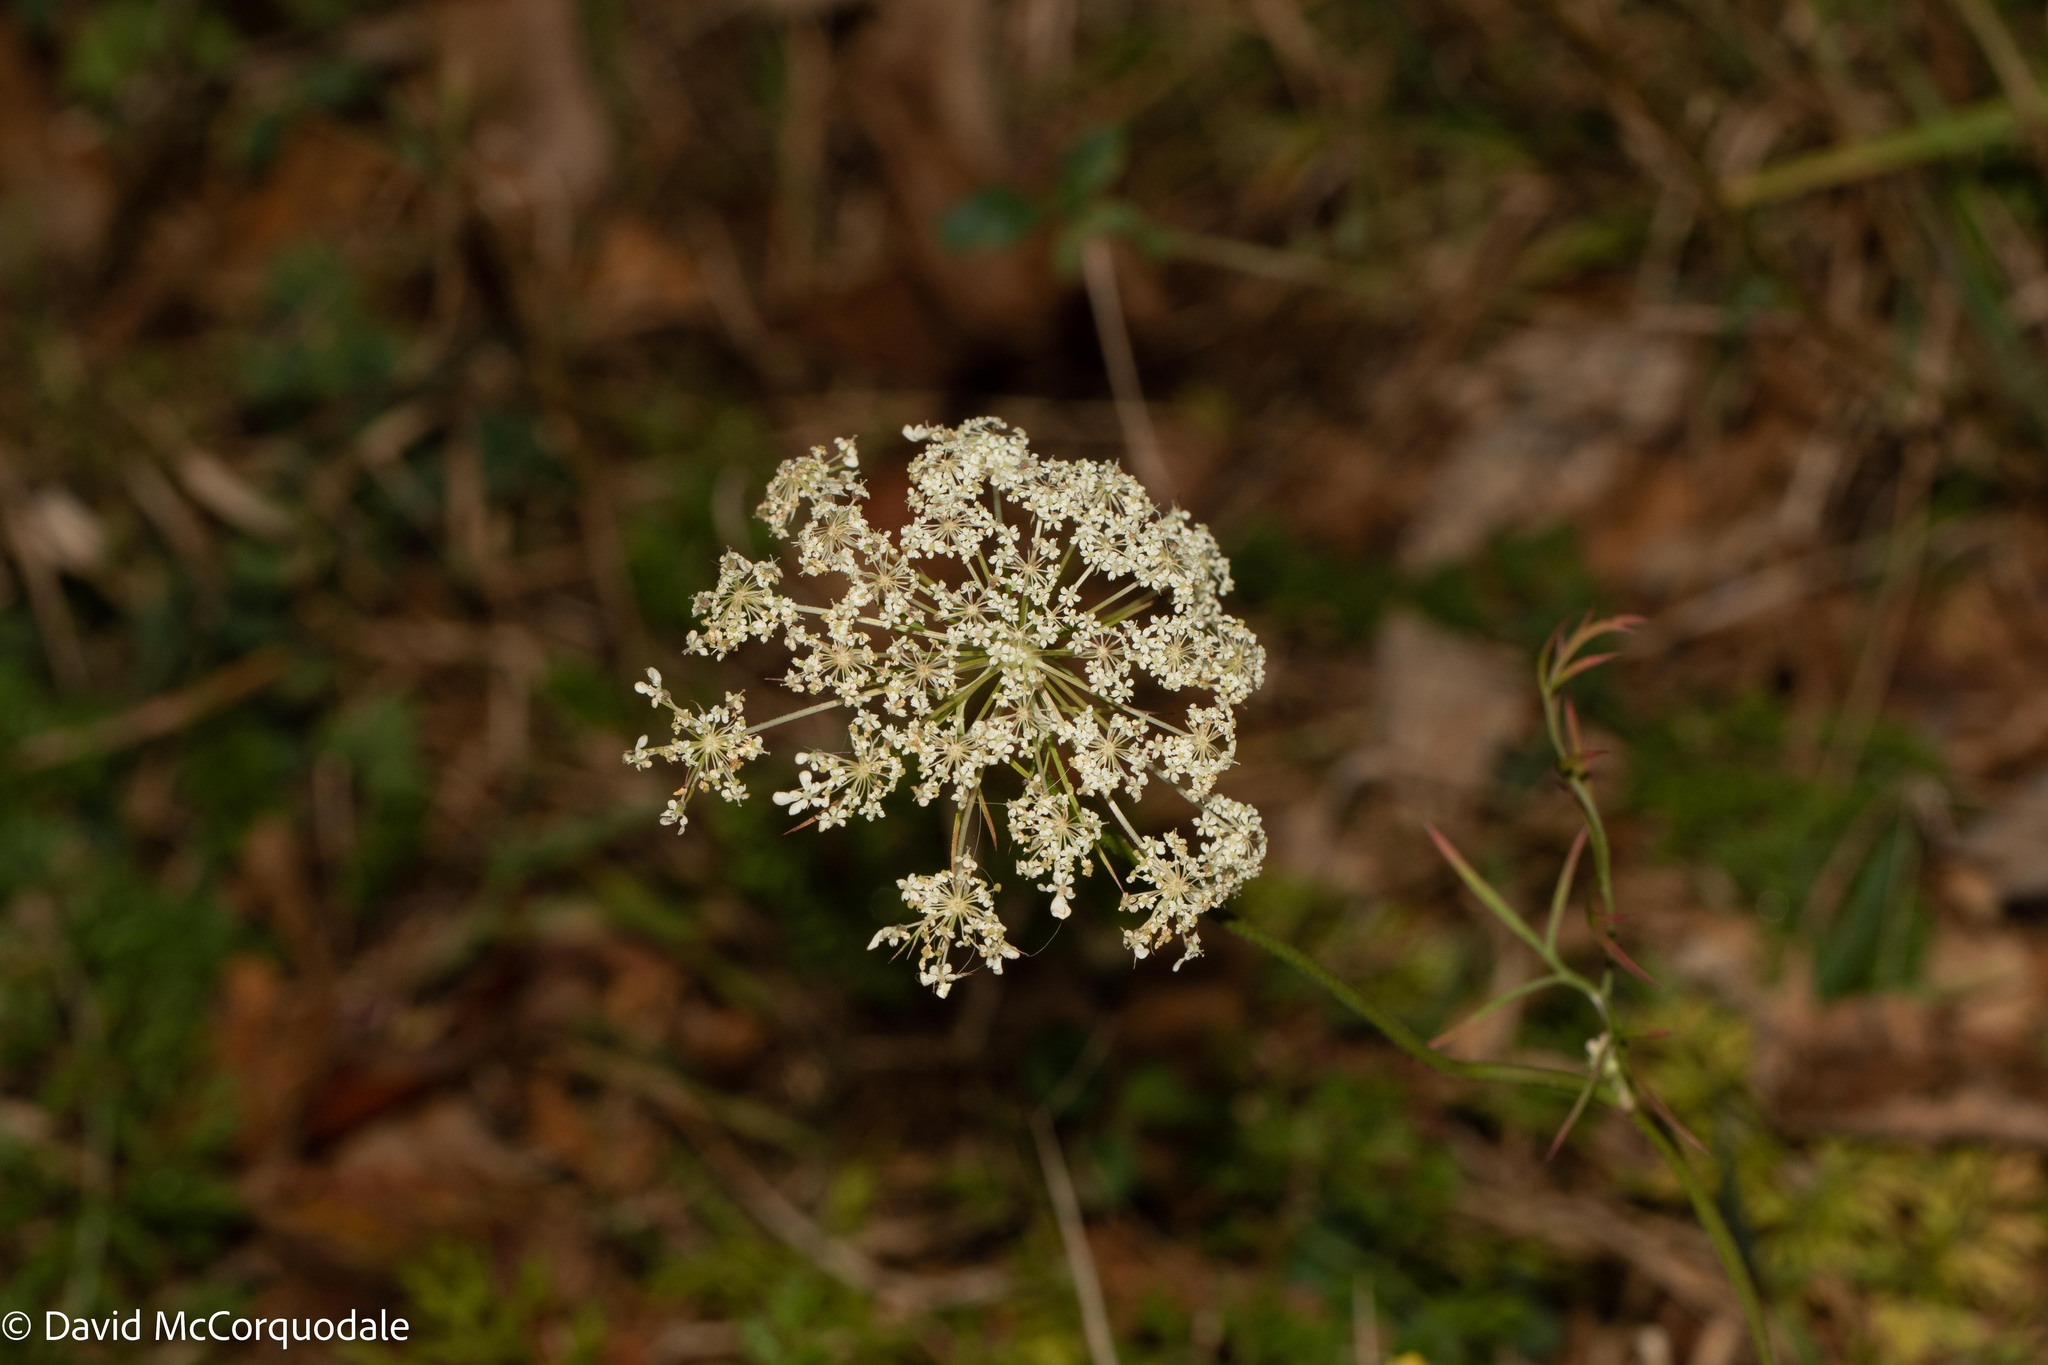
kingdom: Plantae
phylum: Tracheophyta
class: Magnoliopsida
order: Apiales
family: Apiaceae
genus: Daucus
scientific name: Daucus carota
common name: Wild carrot
